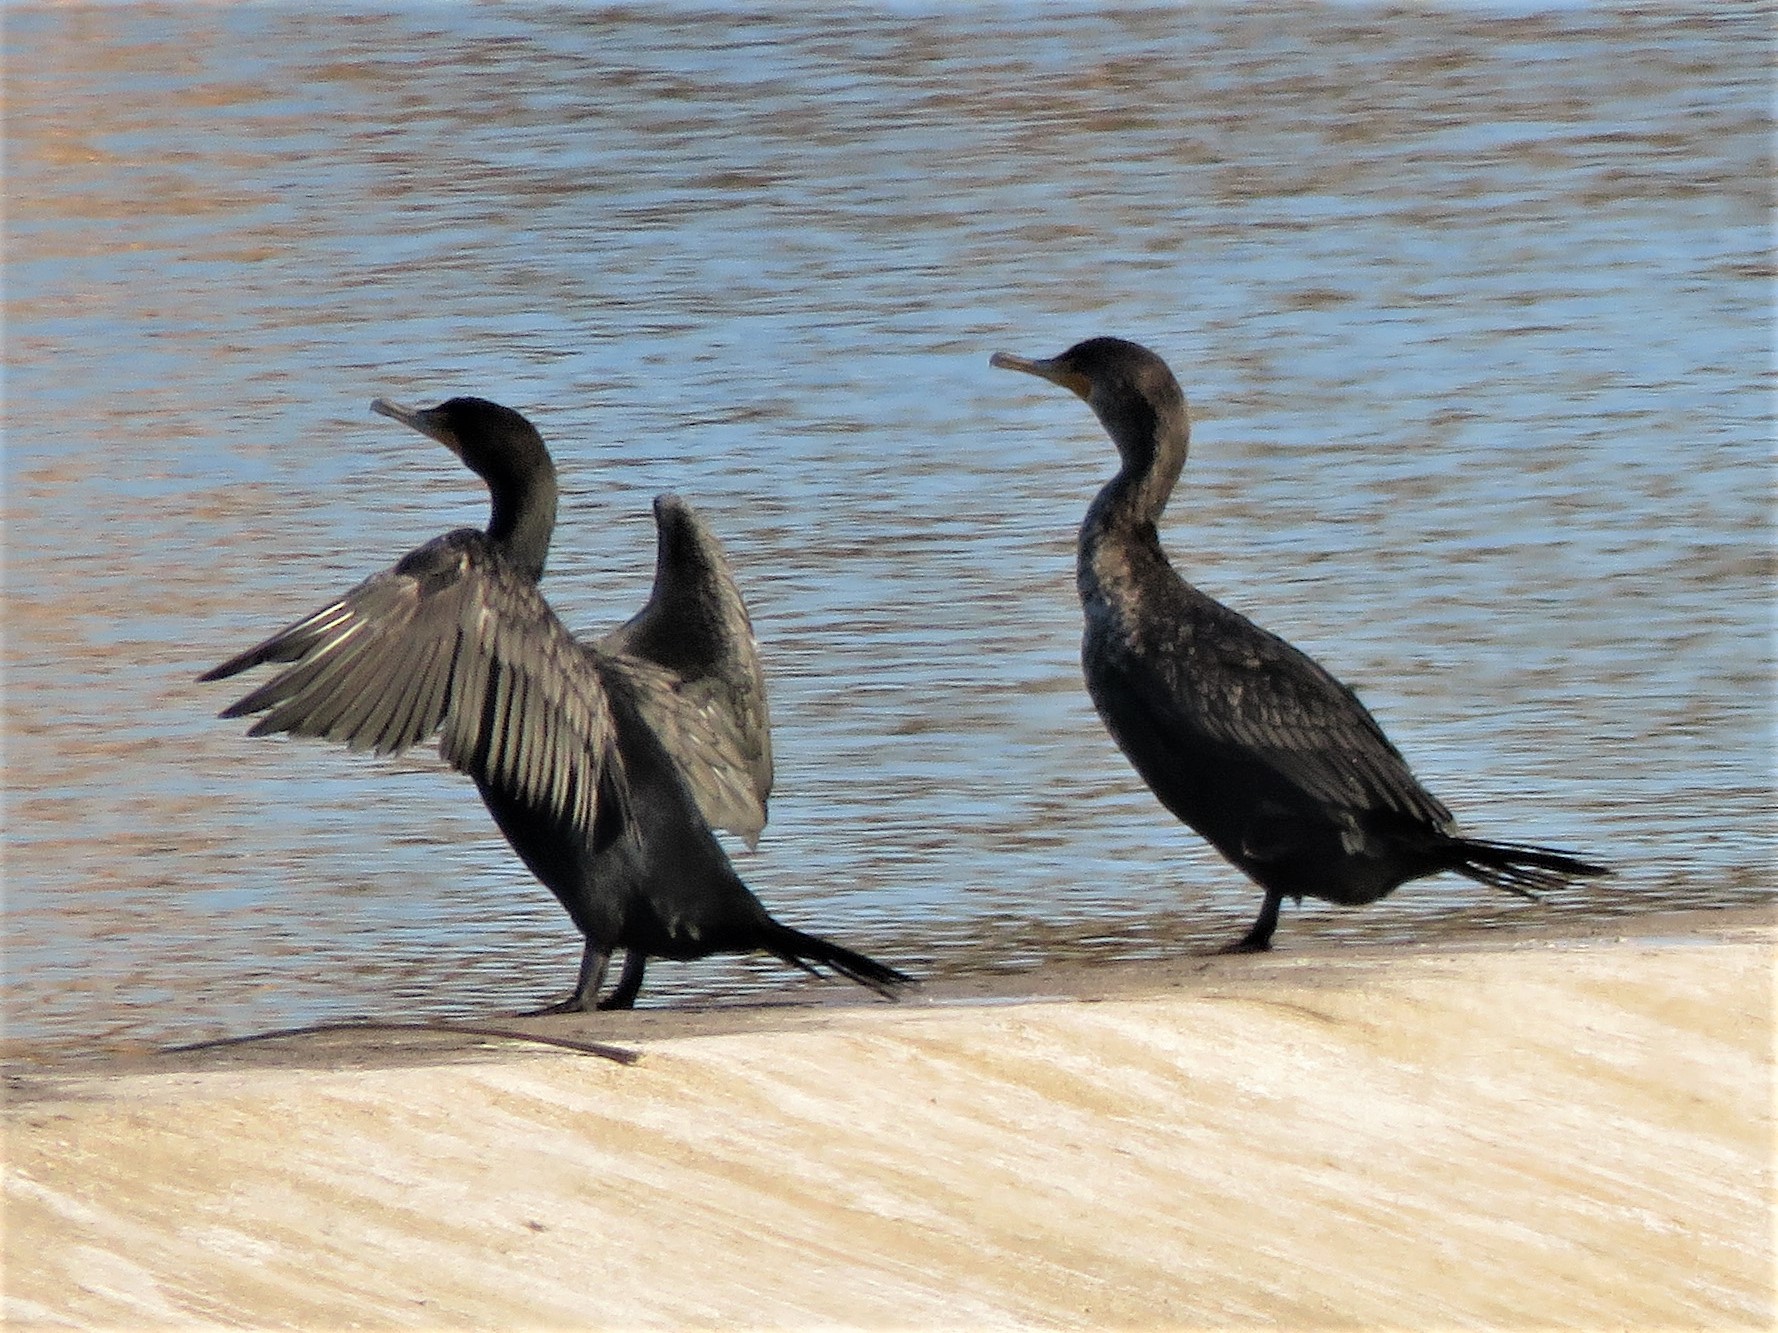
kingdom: Animalia
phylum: Chordata
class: Aves
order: Suliformes
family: Phalacrocoracidae
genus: Phalacrocorax
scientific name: Phalacrocorax auritus
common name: Double-crested cormorant
